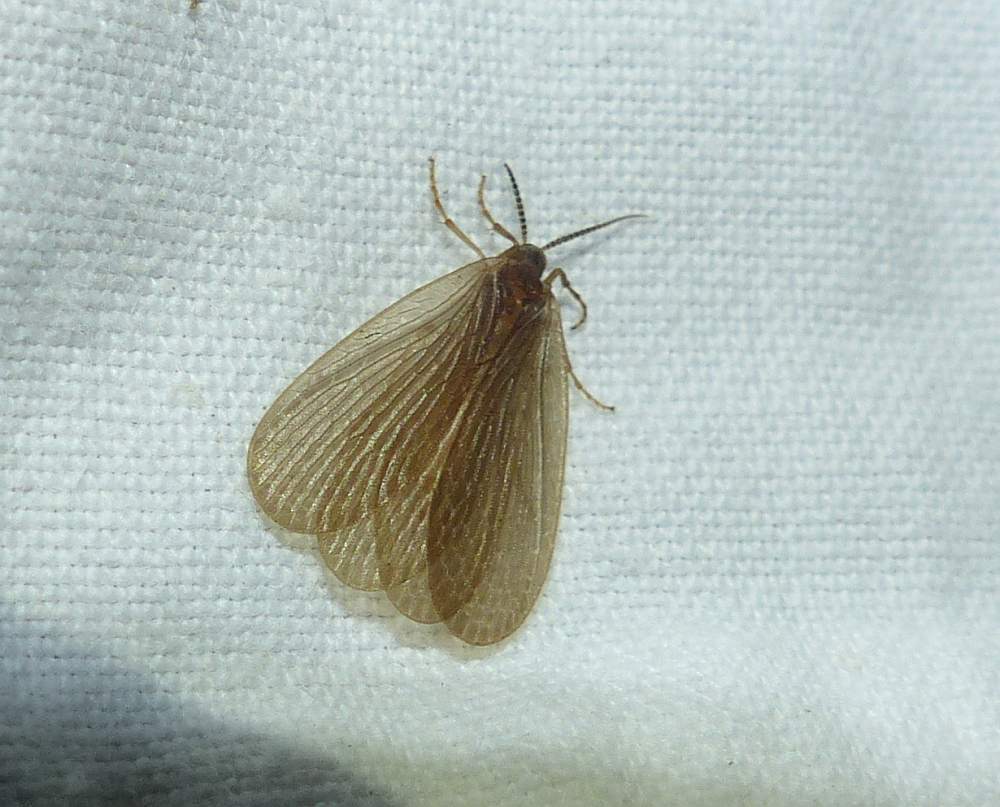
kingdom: Animalia
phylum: Arthropoda
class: Insecta
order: Mecoptera
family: Meropeidae
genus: Merope
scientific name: Merope tuber
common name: Forcepfly
